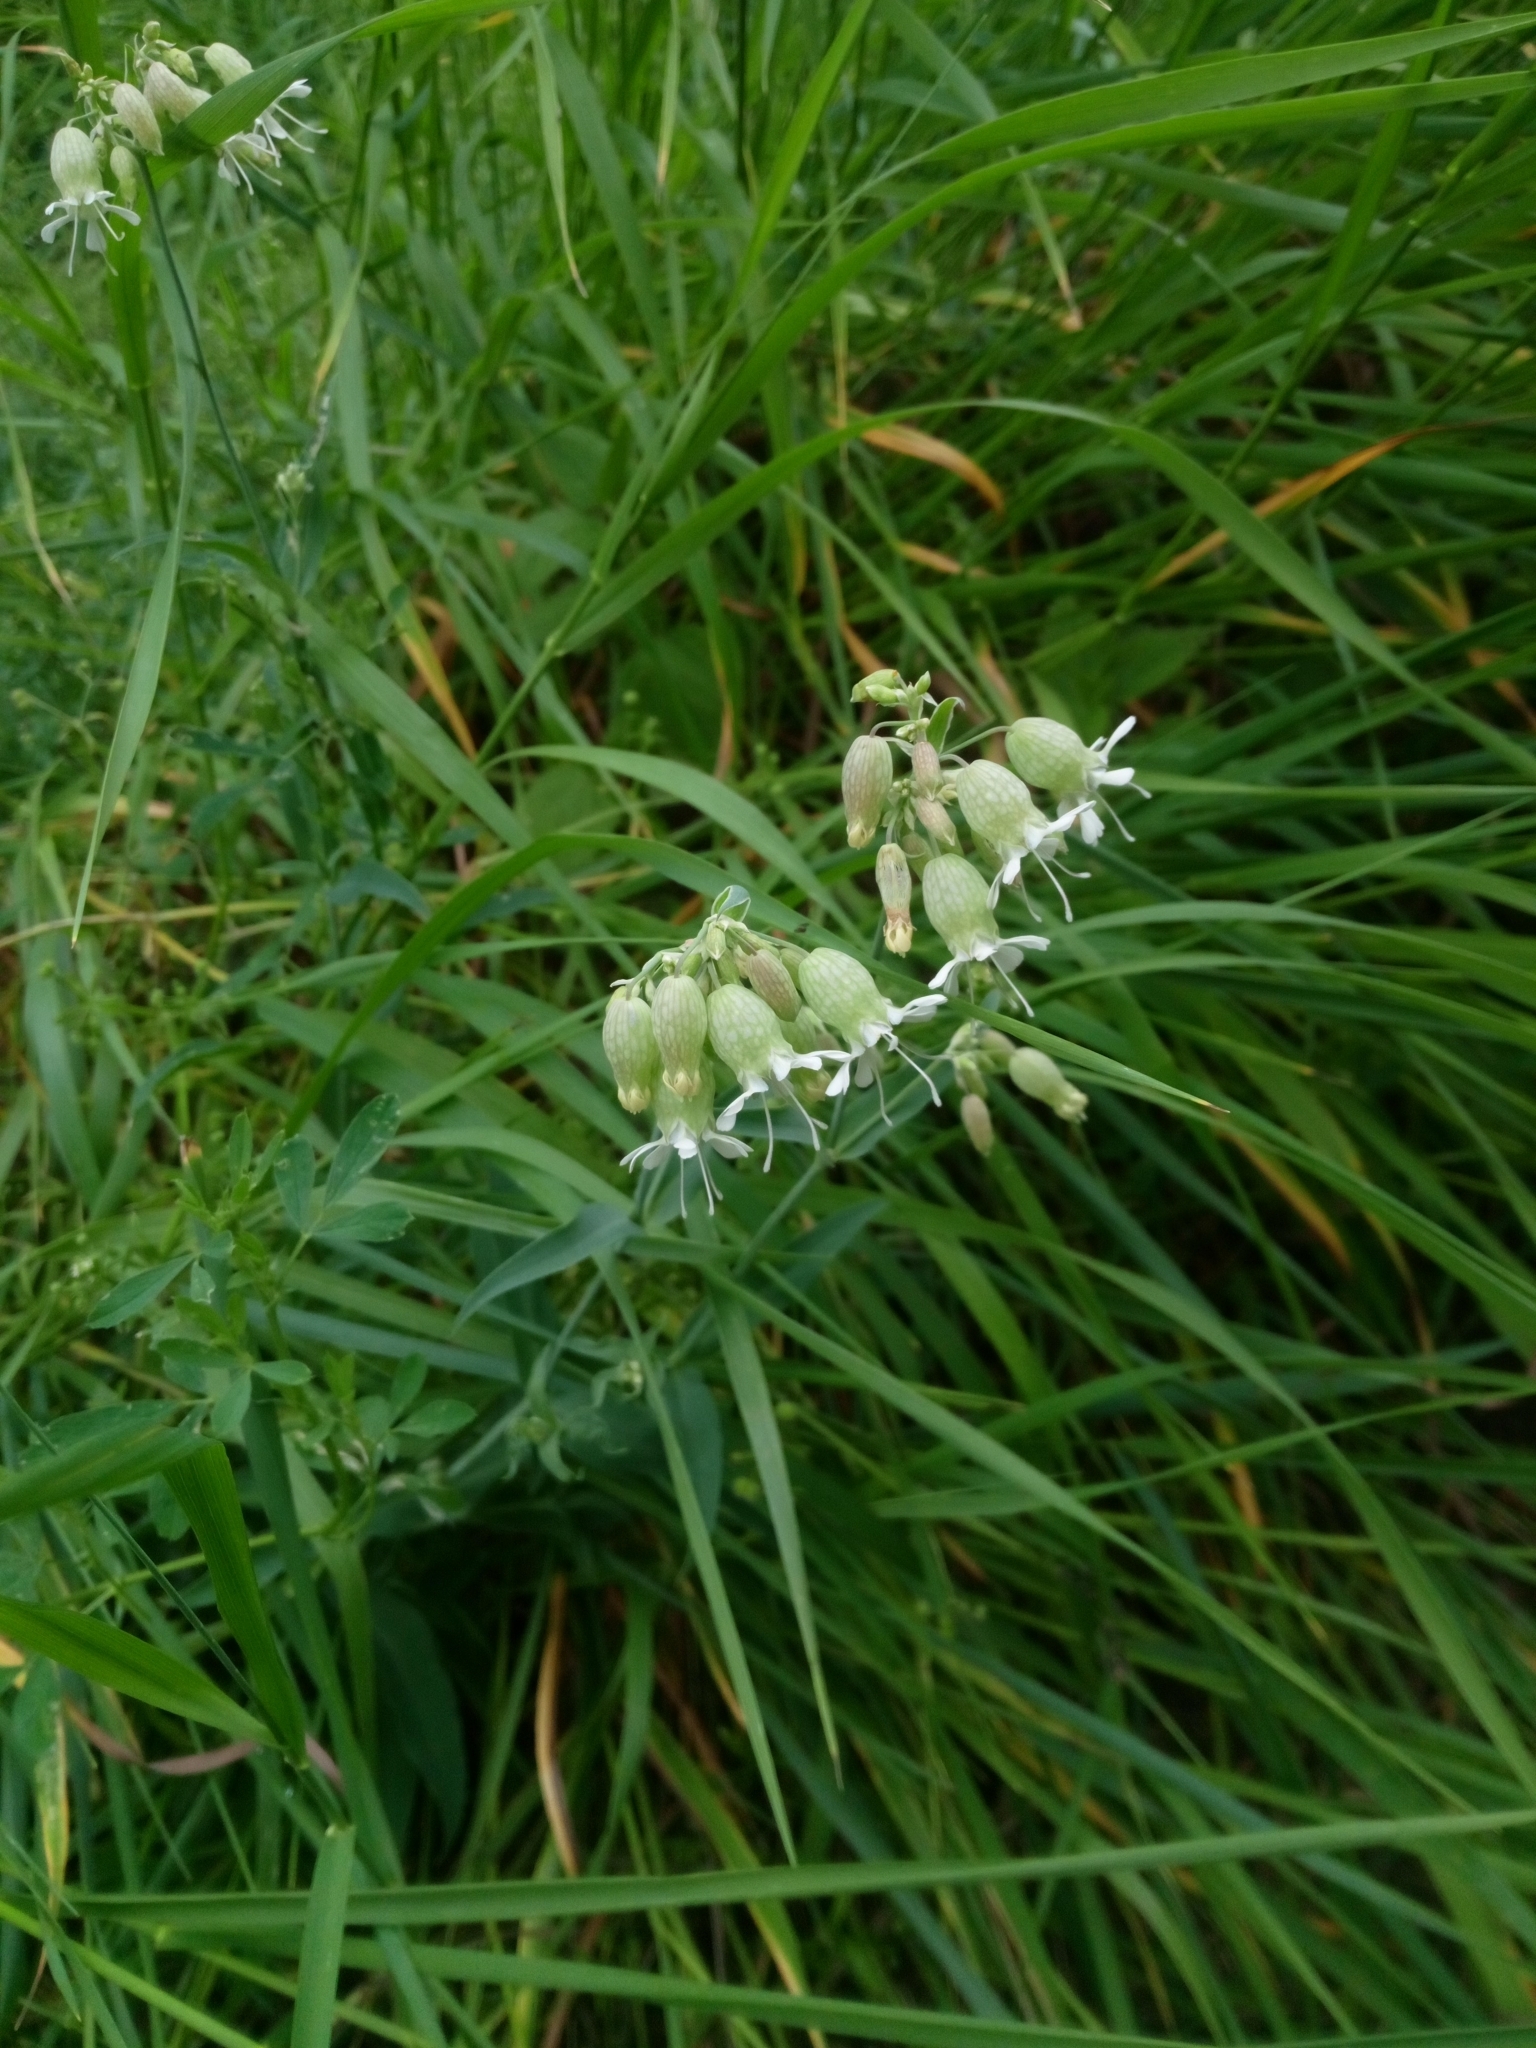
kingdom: Plantae
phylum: Tracheophyta
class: Magnoliopsida
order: Caryophyllales
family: Caryophyllaceae
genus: Silene
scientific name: Silene vulgaris
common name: Bladder campion
